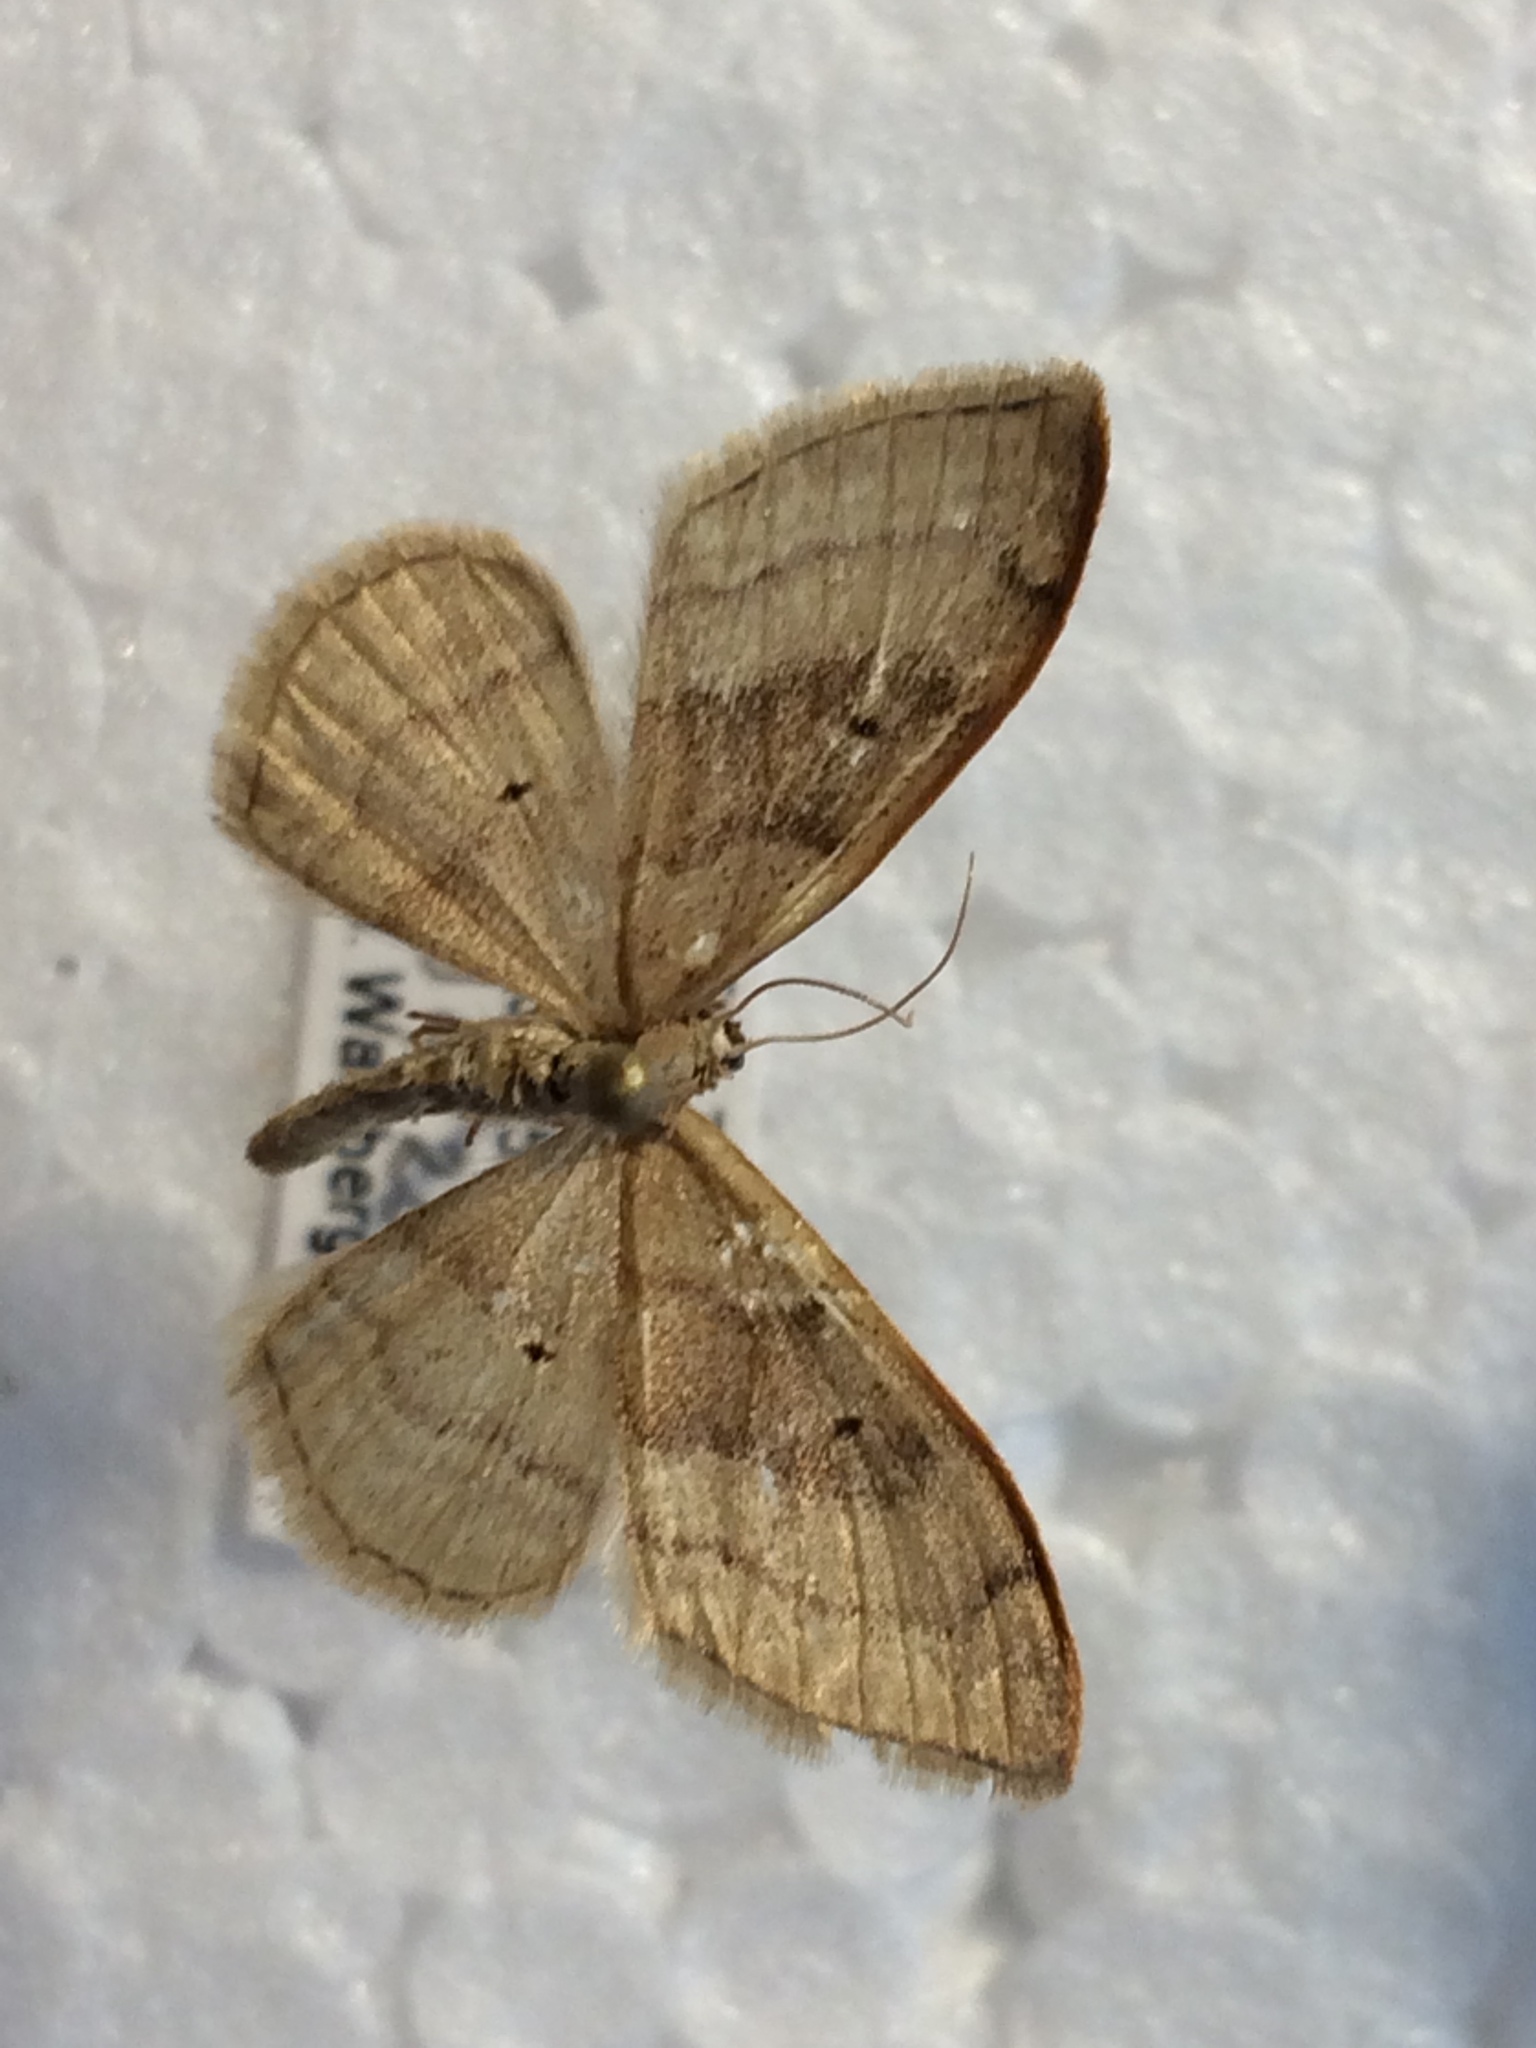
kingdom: Animalia
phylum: Arthropoda
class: Insecta
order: Lepidoptera
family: Geometridae
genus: Idaea
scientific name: Idaea degeneraria
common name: Portland ribbon wave
